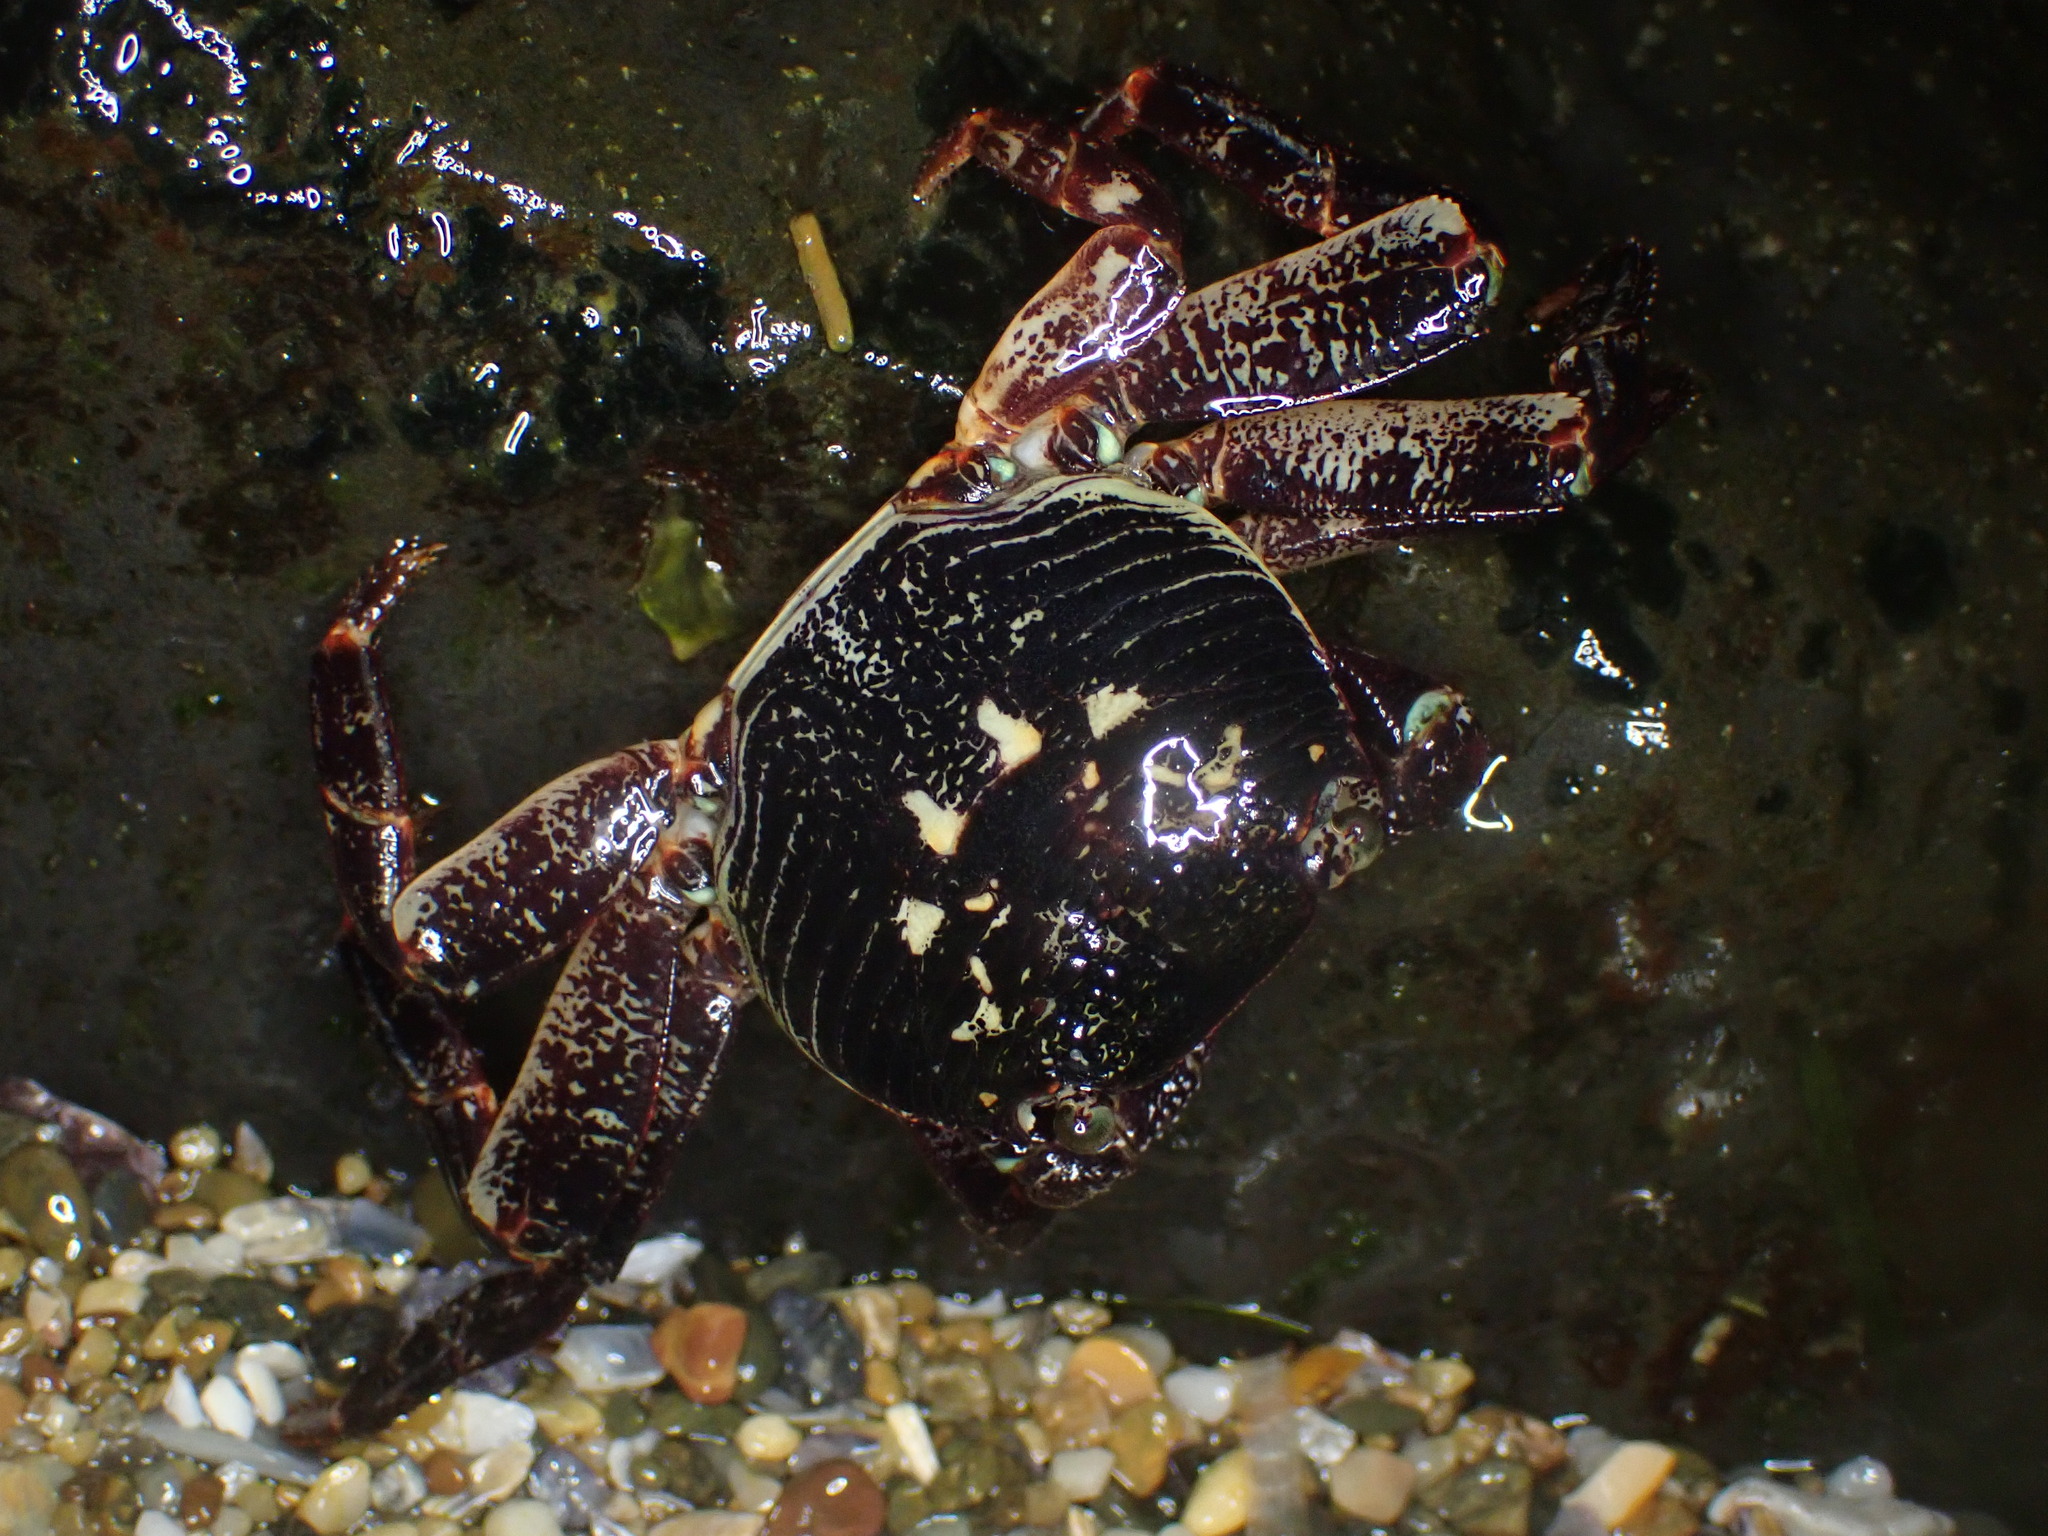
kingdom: Animalia
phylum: Arthropoda
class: Malacostraca
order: Decapoda
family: Grapsidae
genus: Leptograpsus
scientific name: Leptograpsus variegatus
